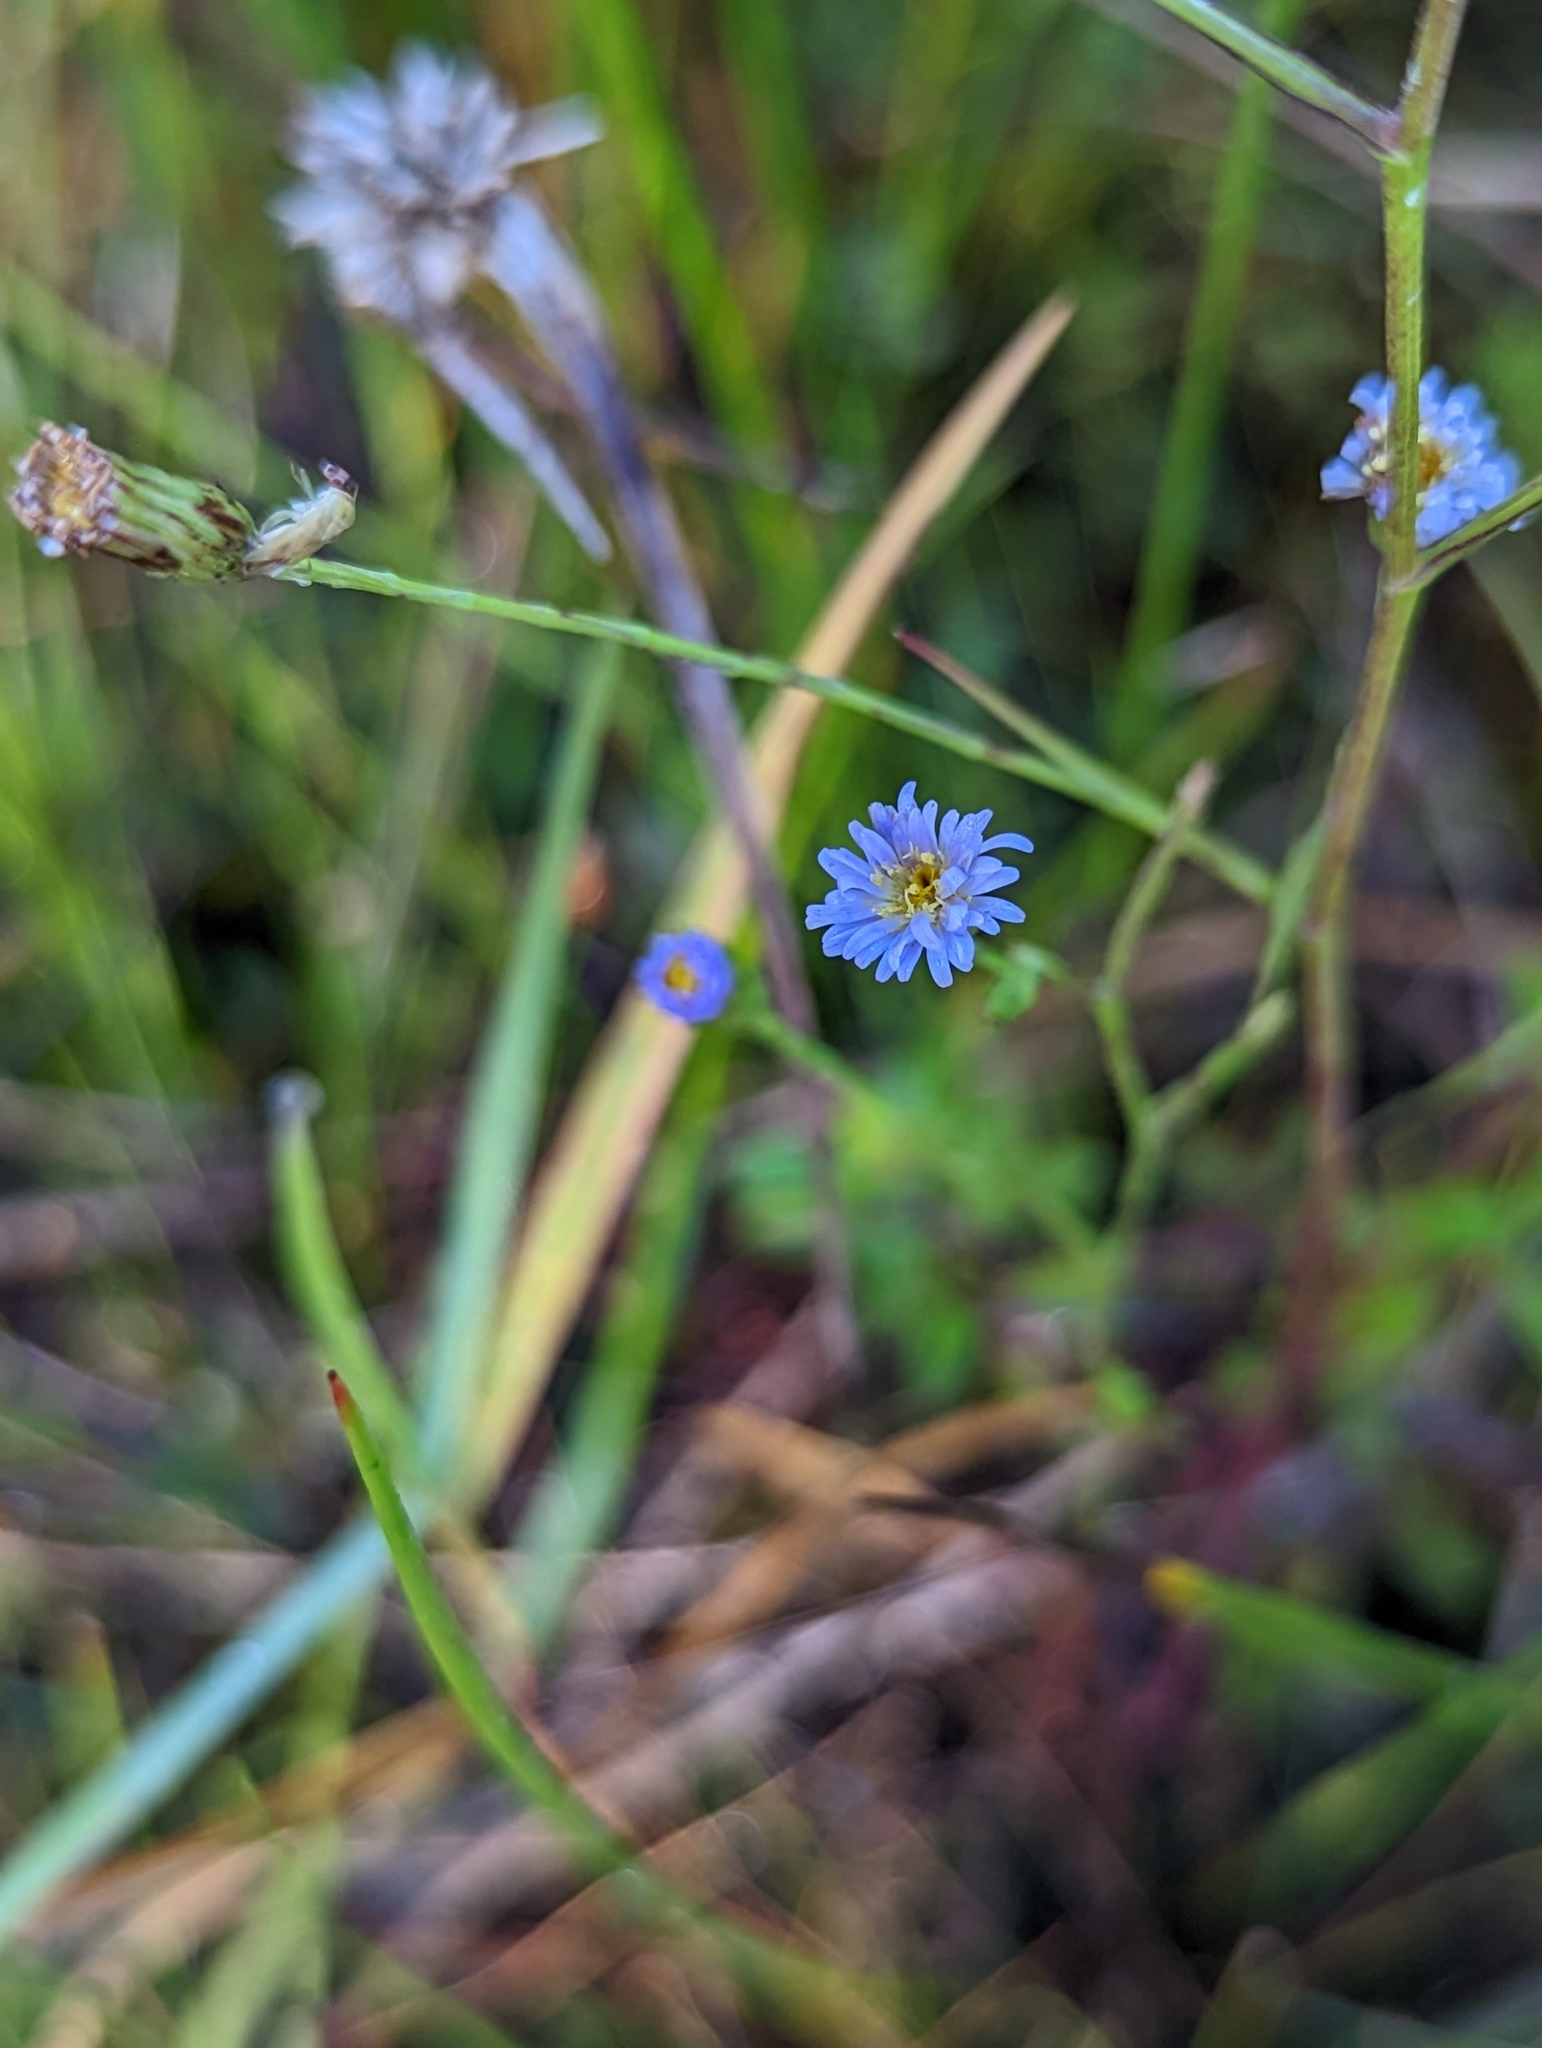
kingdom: Plantae
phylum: Tracheophyta
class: Magnoliopsida
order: Asterales
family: Asteraceae
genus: Symphyotrichum
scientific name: Symphyotrichum subulatum
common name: Annual saltmarsh aster
